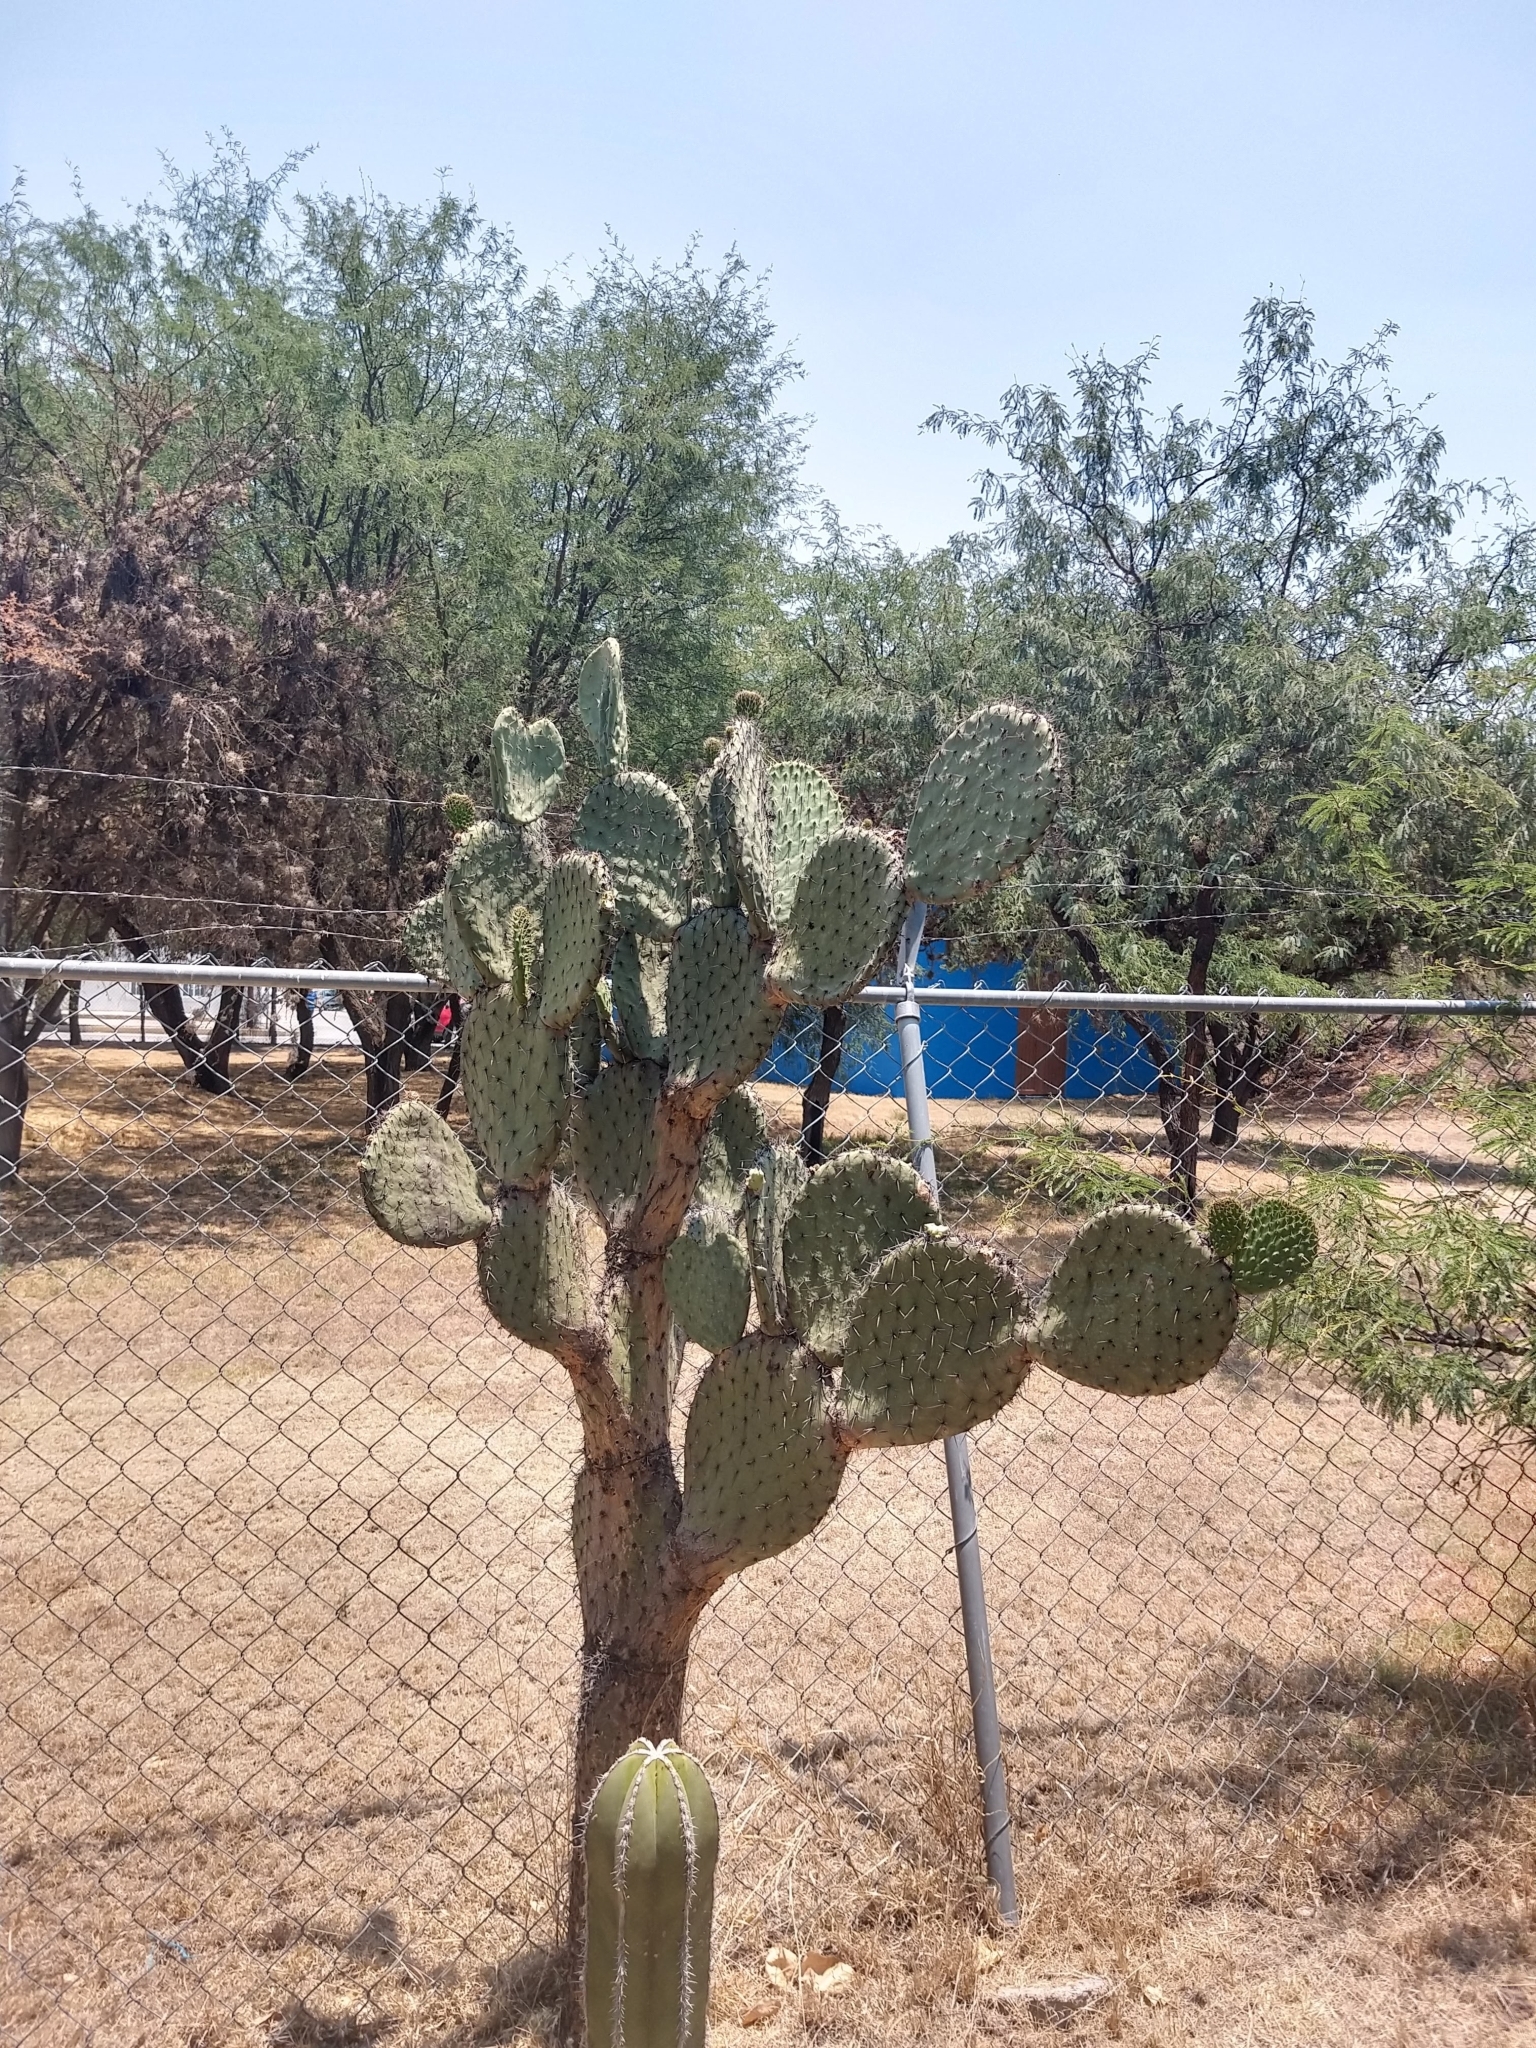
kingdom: Plantae
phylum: Tracheophyta
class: Magnoliopsida
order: Caryophyllales
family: Cactaceae
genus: Opuntia
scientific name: Opuntia streptacantha
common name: Gracemere-pear
